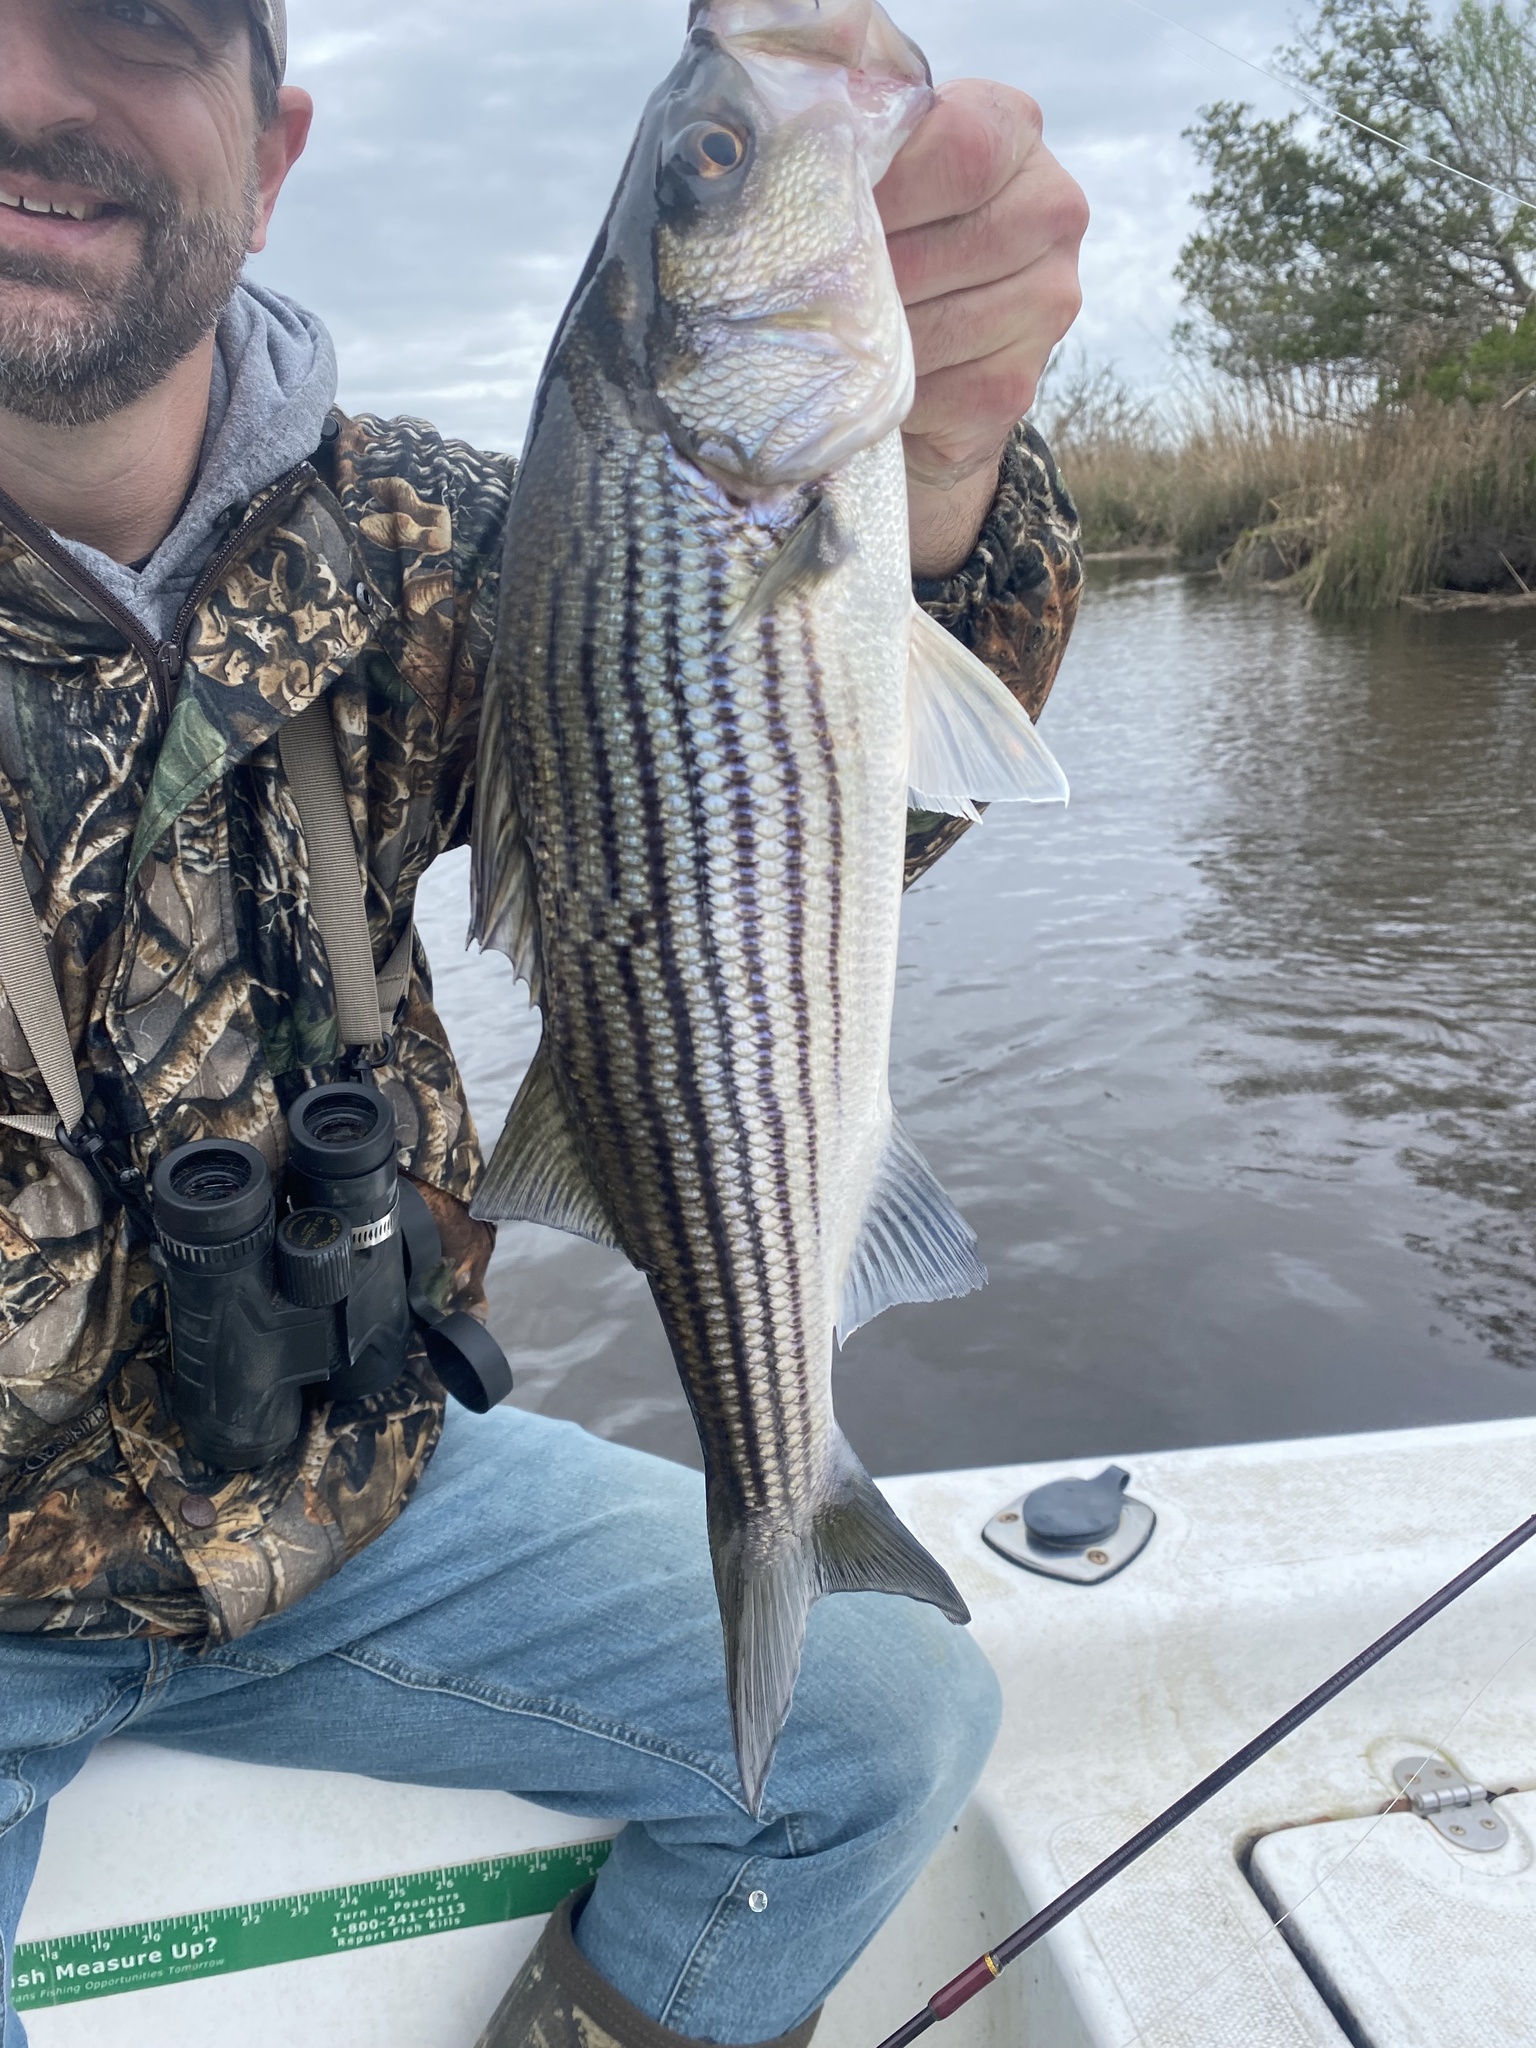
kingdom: Animalia
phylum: Chordata
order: Perciformes
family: Moronidae
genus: Morone
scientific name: Morone saxatilis
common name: Striped bass
